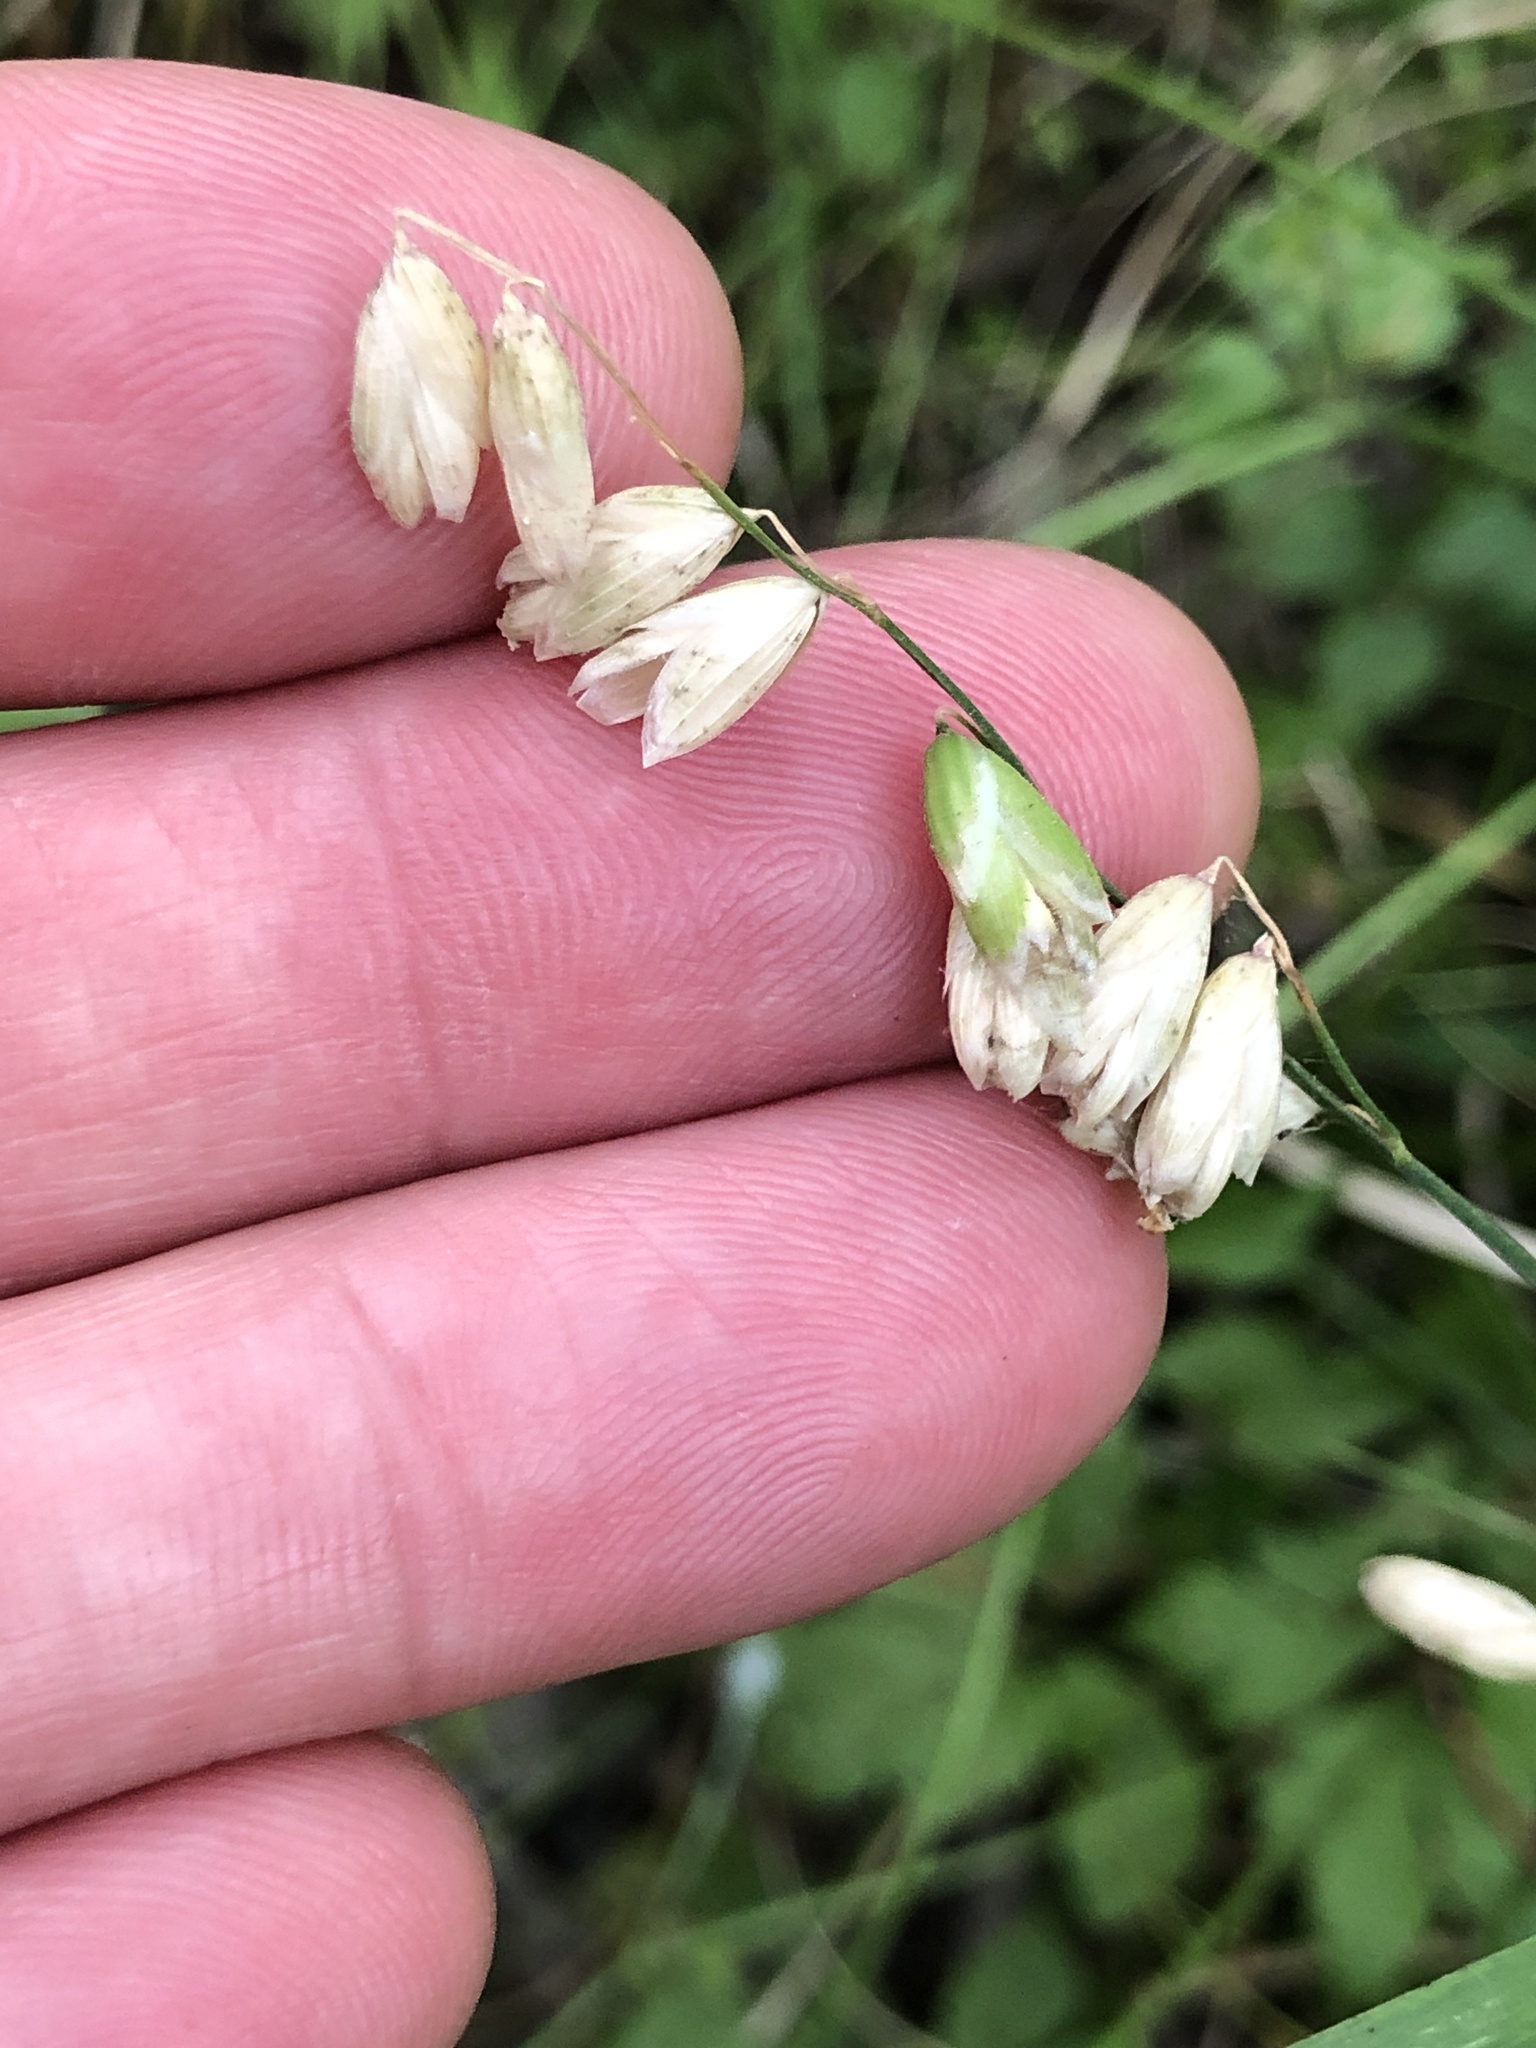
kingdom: Plantae
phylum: Tracheophyta
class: Liliopsida
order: Poales
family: Poaceae
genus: Melica
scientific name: Melica mutica
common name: Two-flower melic
